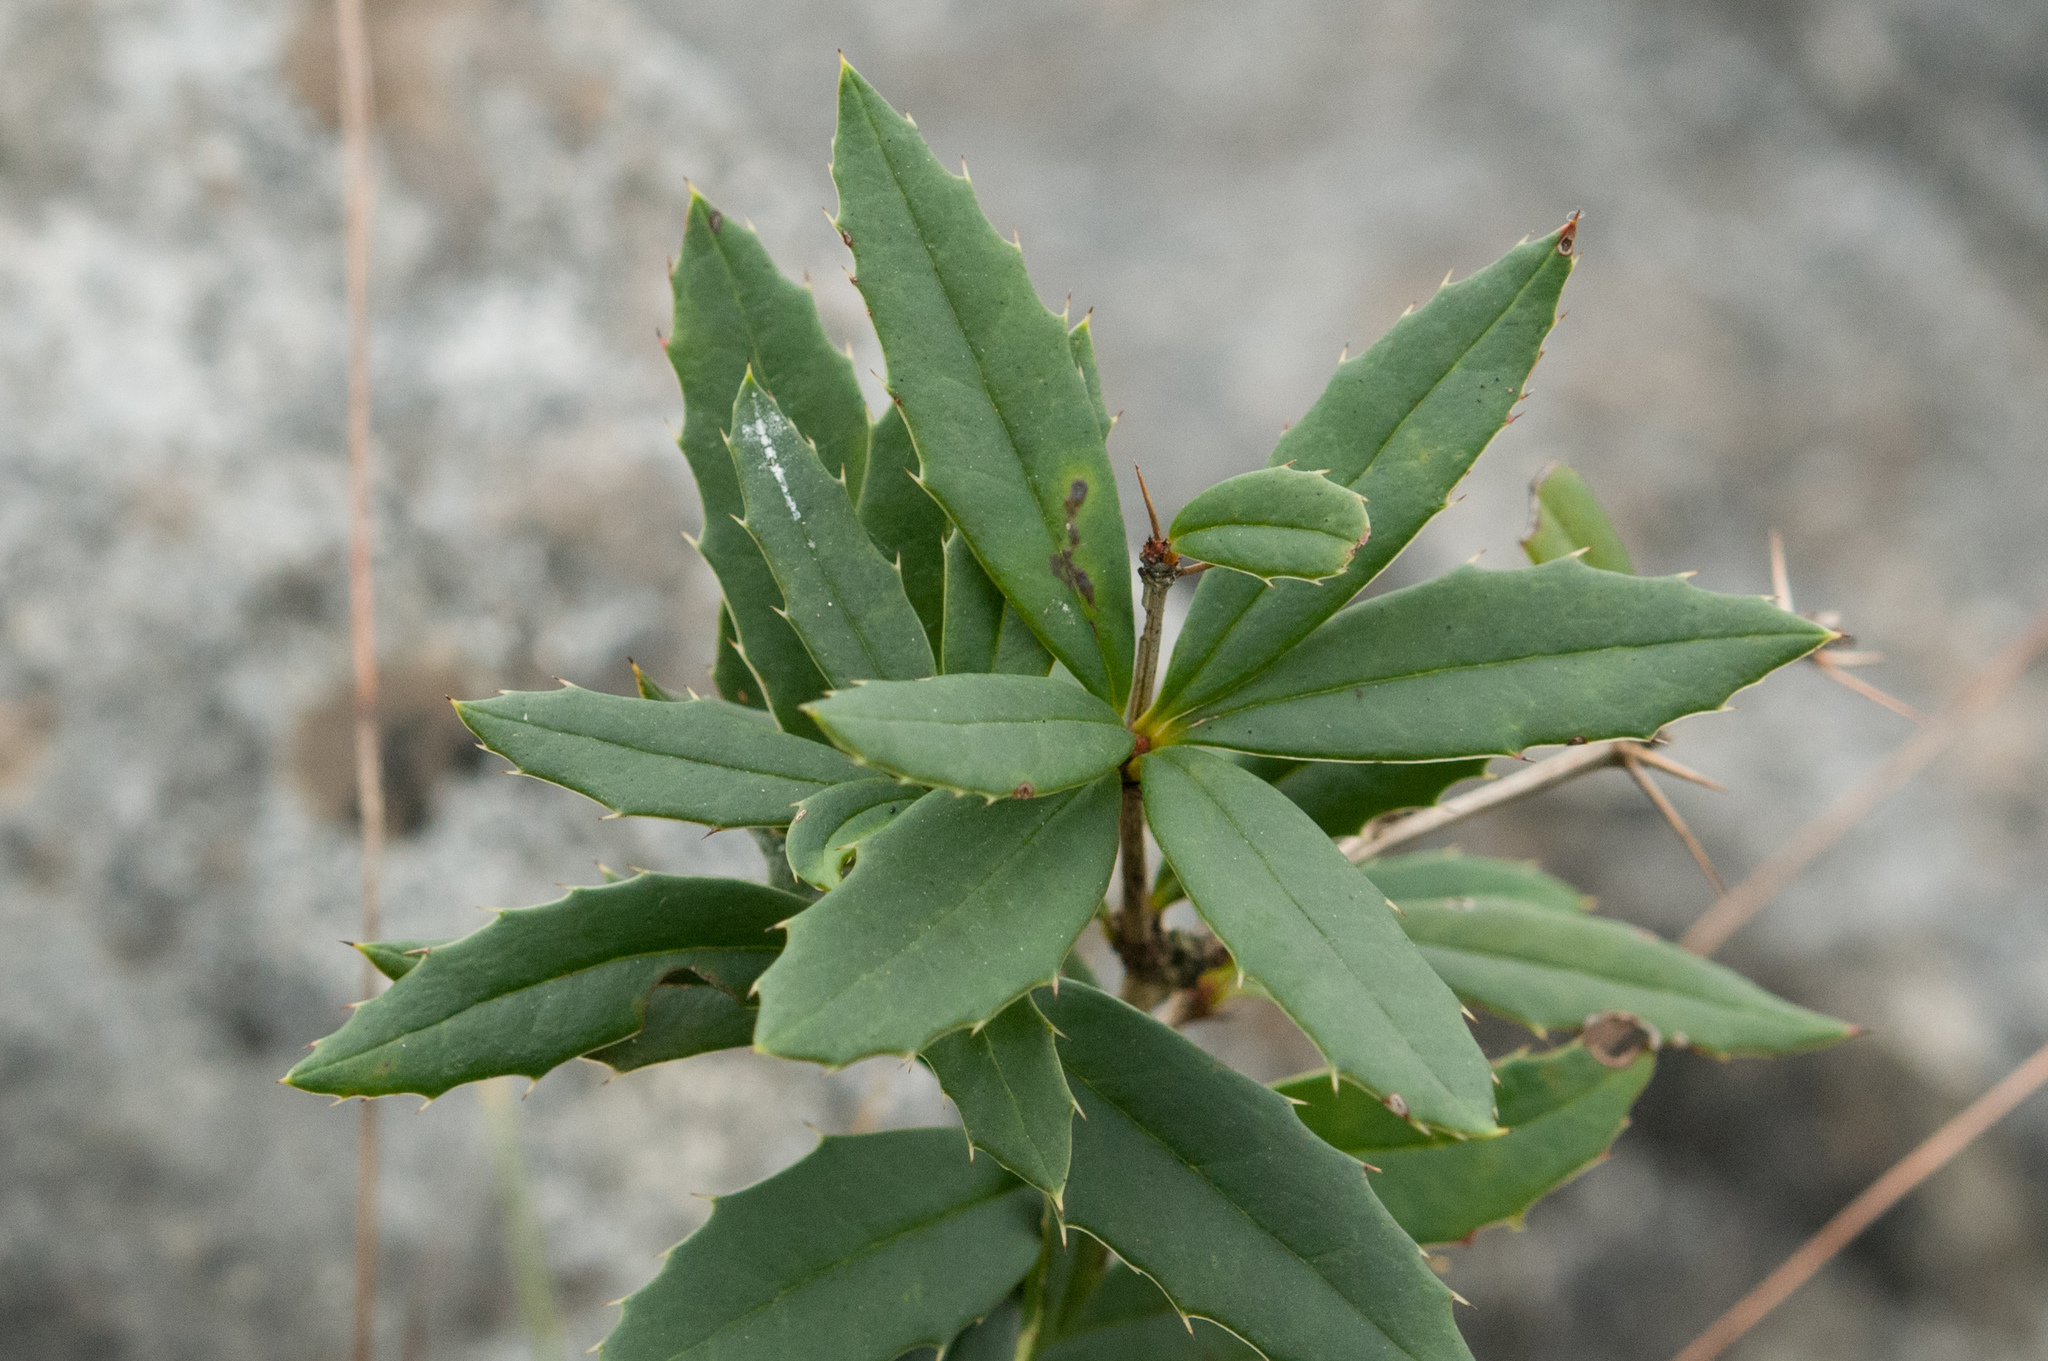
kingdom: Plantae
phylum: Tracheophyta
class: Magnoliopsida
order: Ranunculales
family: Berberidaceae
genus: Berberis
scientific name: Berberis tarokoensis
